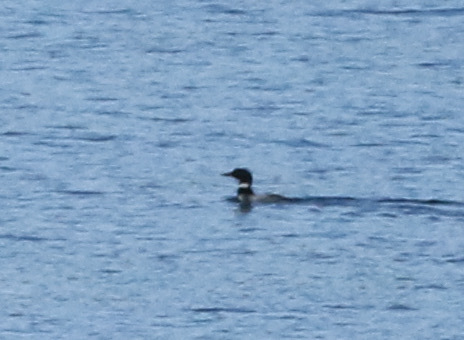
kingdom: Animalia
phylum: Chordata
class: Aves
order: Gaviiformes
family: Gaviidae
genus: Gavia
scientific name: Gavia immer
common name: Common loon
